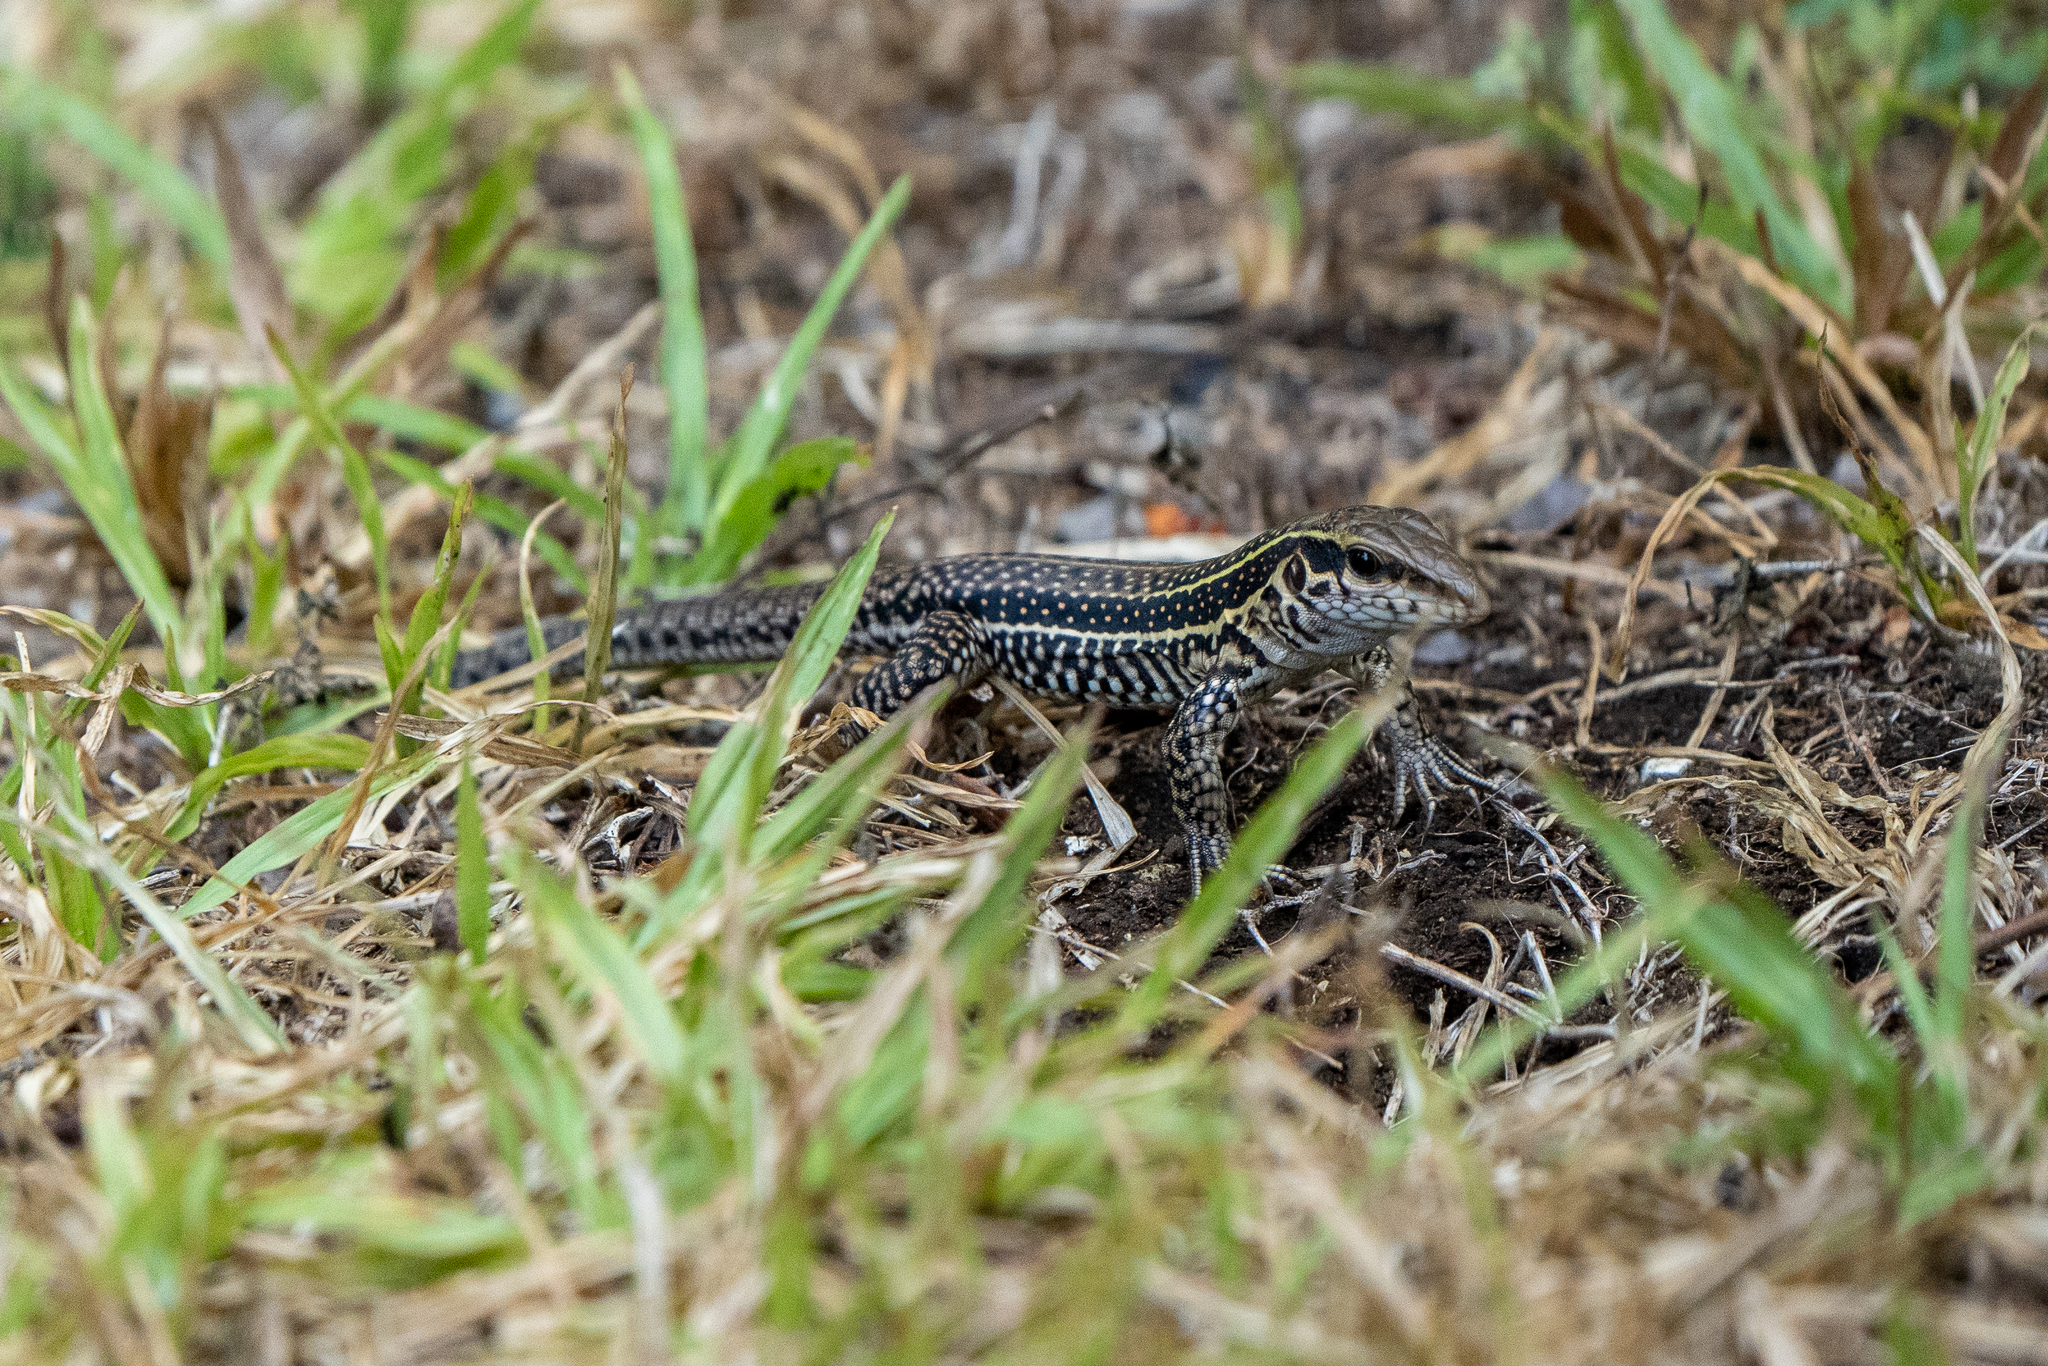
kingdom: Animalia
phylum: Chordata
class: Squamata
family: Teiidae
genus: Ameiva
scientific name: Ameiva praesignis
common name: Giant ameiva
